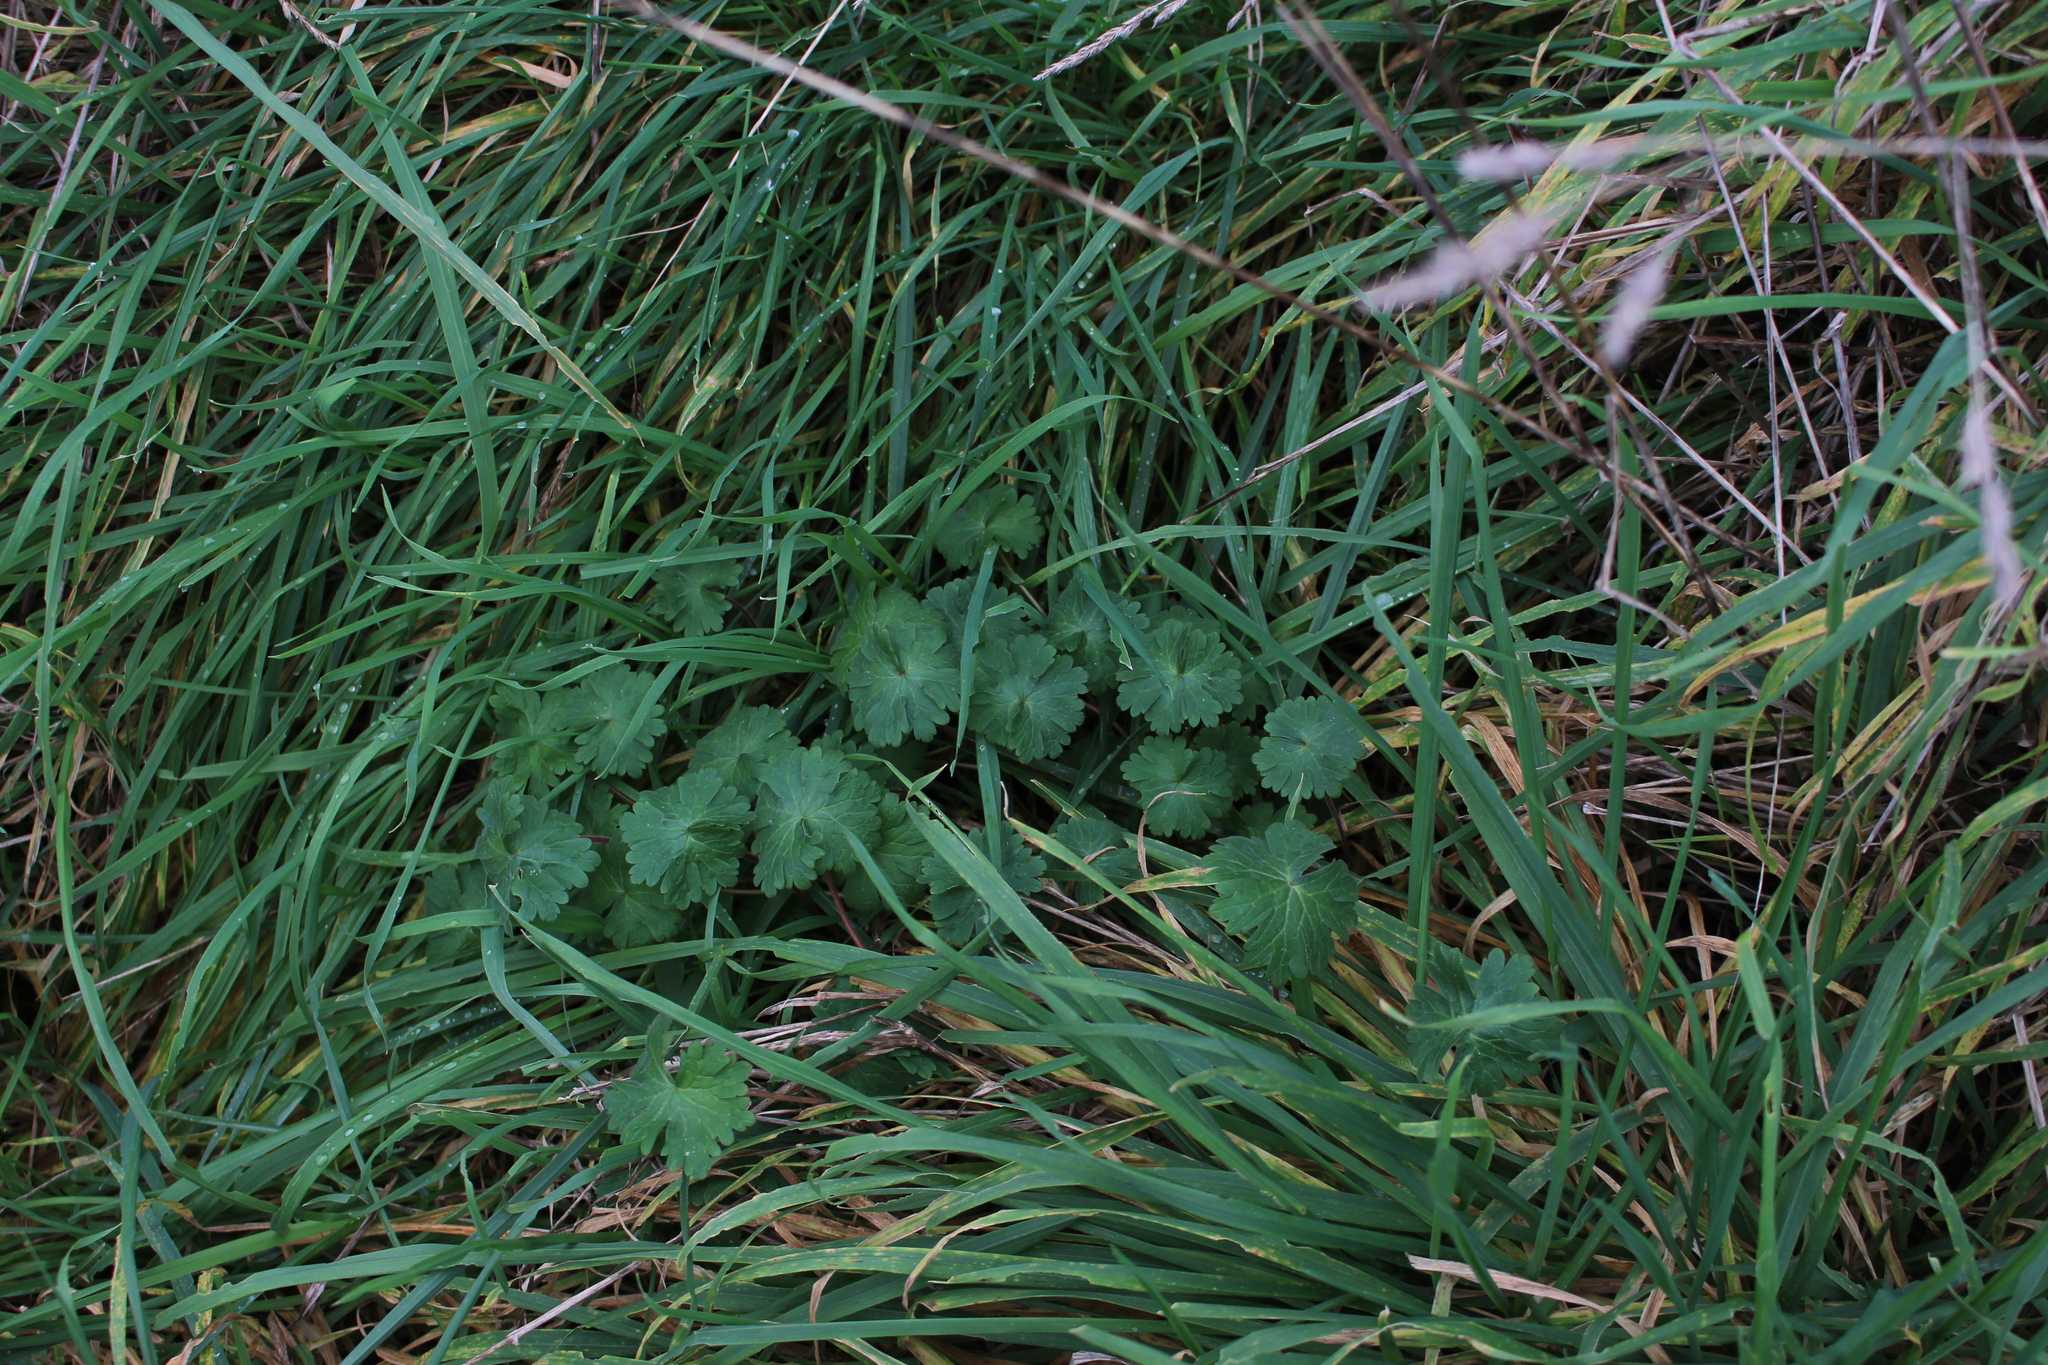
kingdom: Plantae
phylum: Tracheophyta
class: Magnoliopsida
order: Geraniales
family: Geraniaceae
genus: Geranium
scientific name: Geranium molle
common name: Dove's-foot crane's-bill
